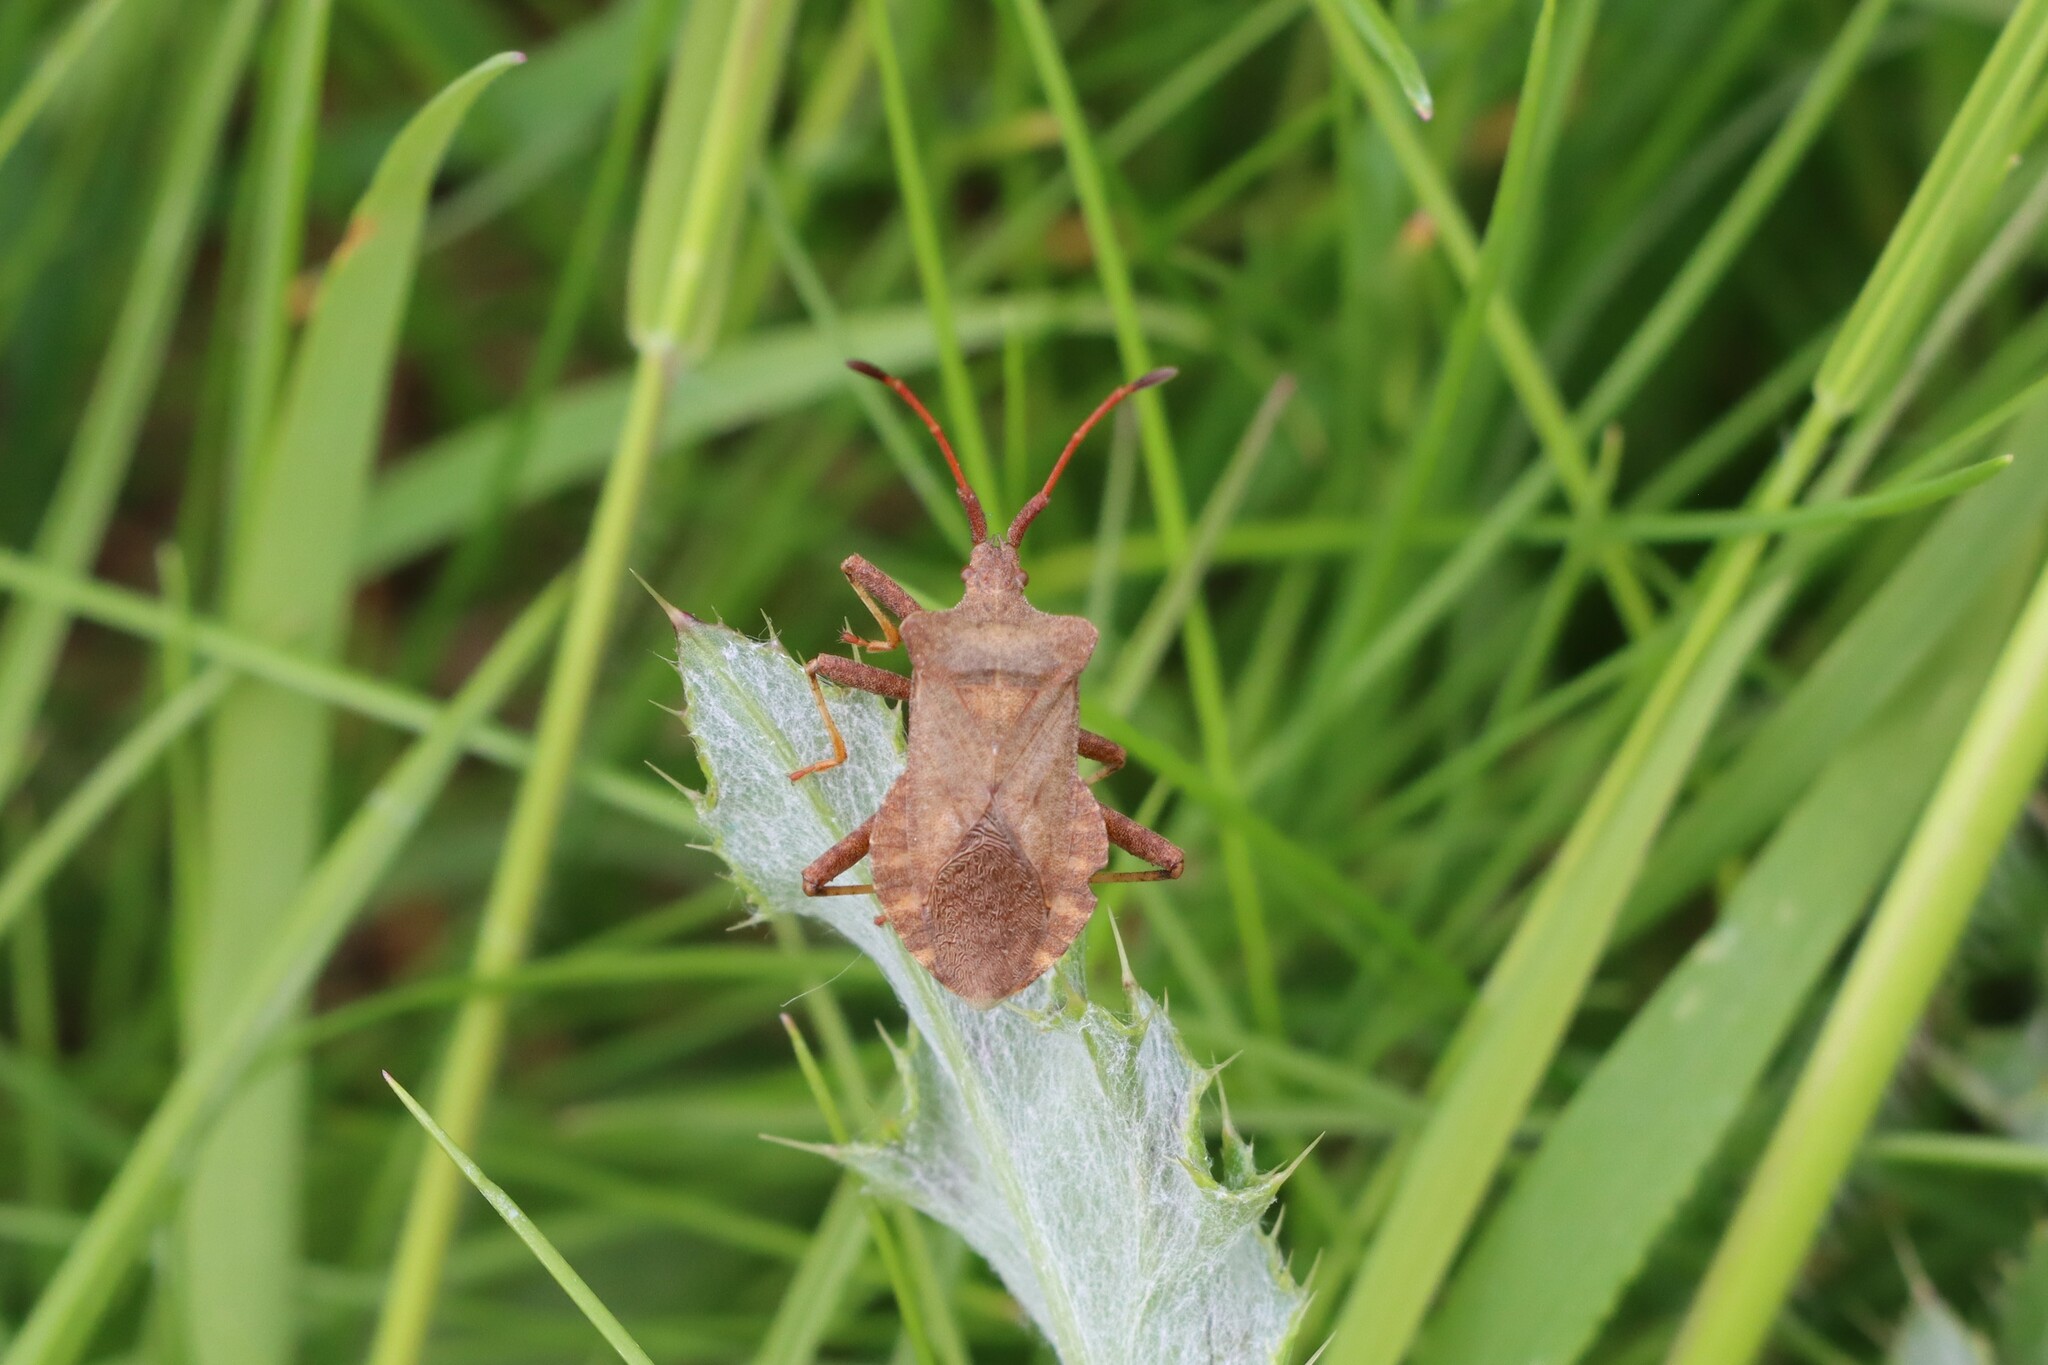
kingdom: Animalia
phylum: Arthropoda
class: Insecta
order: Hemiptera
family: Coreidae
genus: Coreus
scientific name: Coreus marginatus
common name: Dock bug
